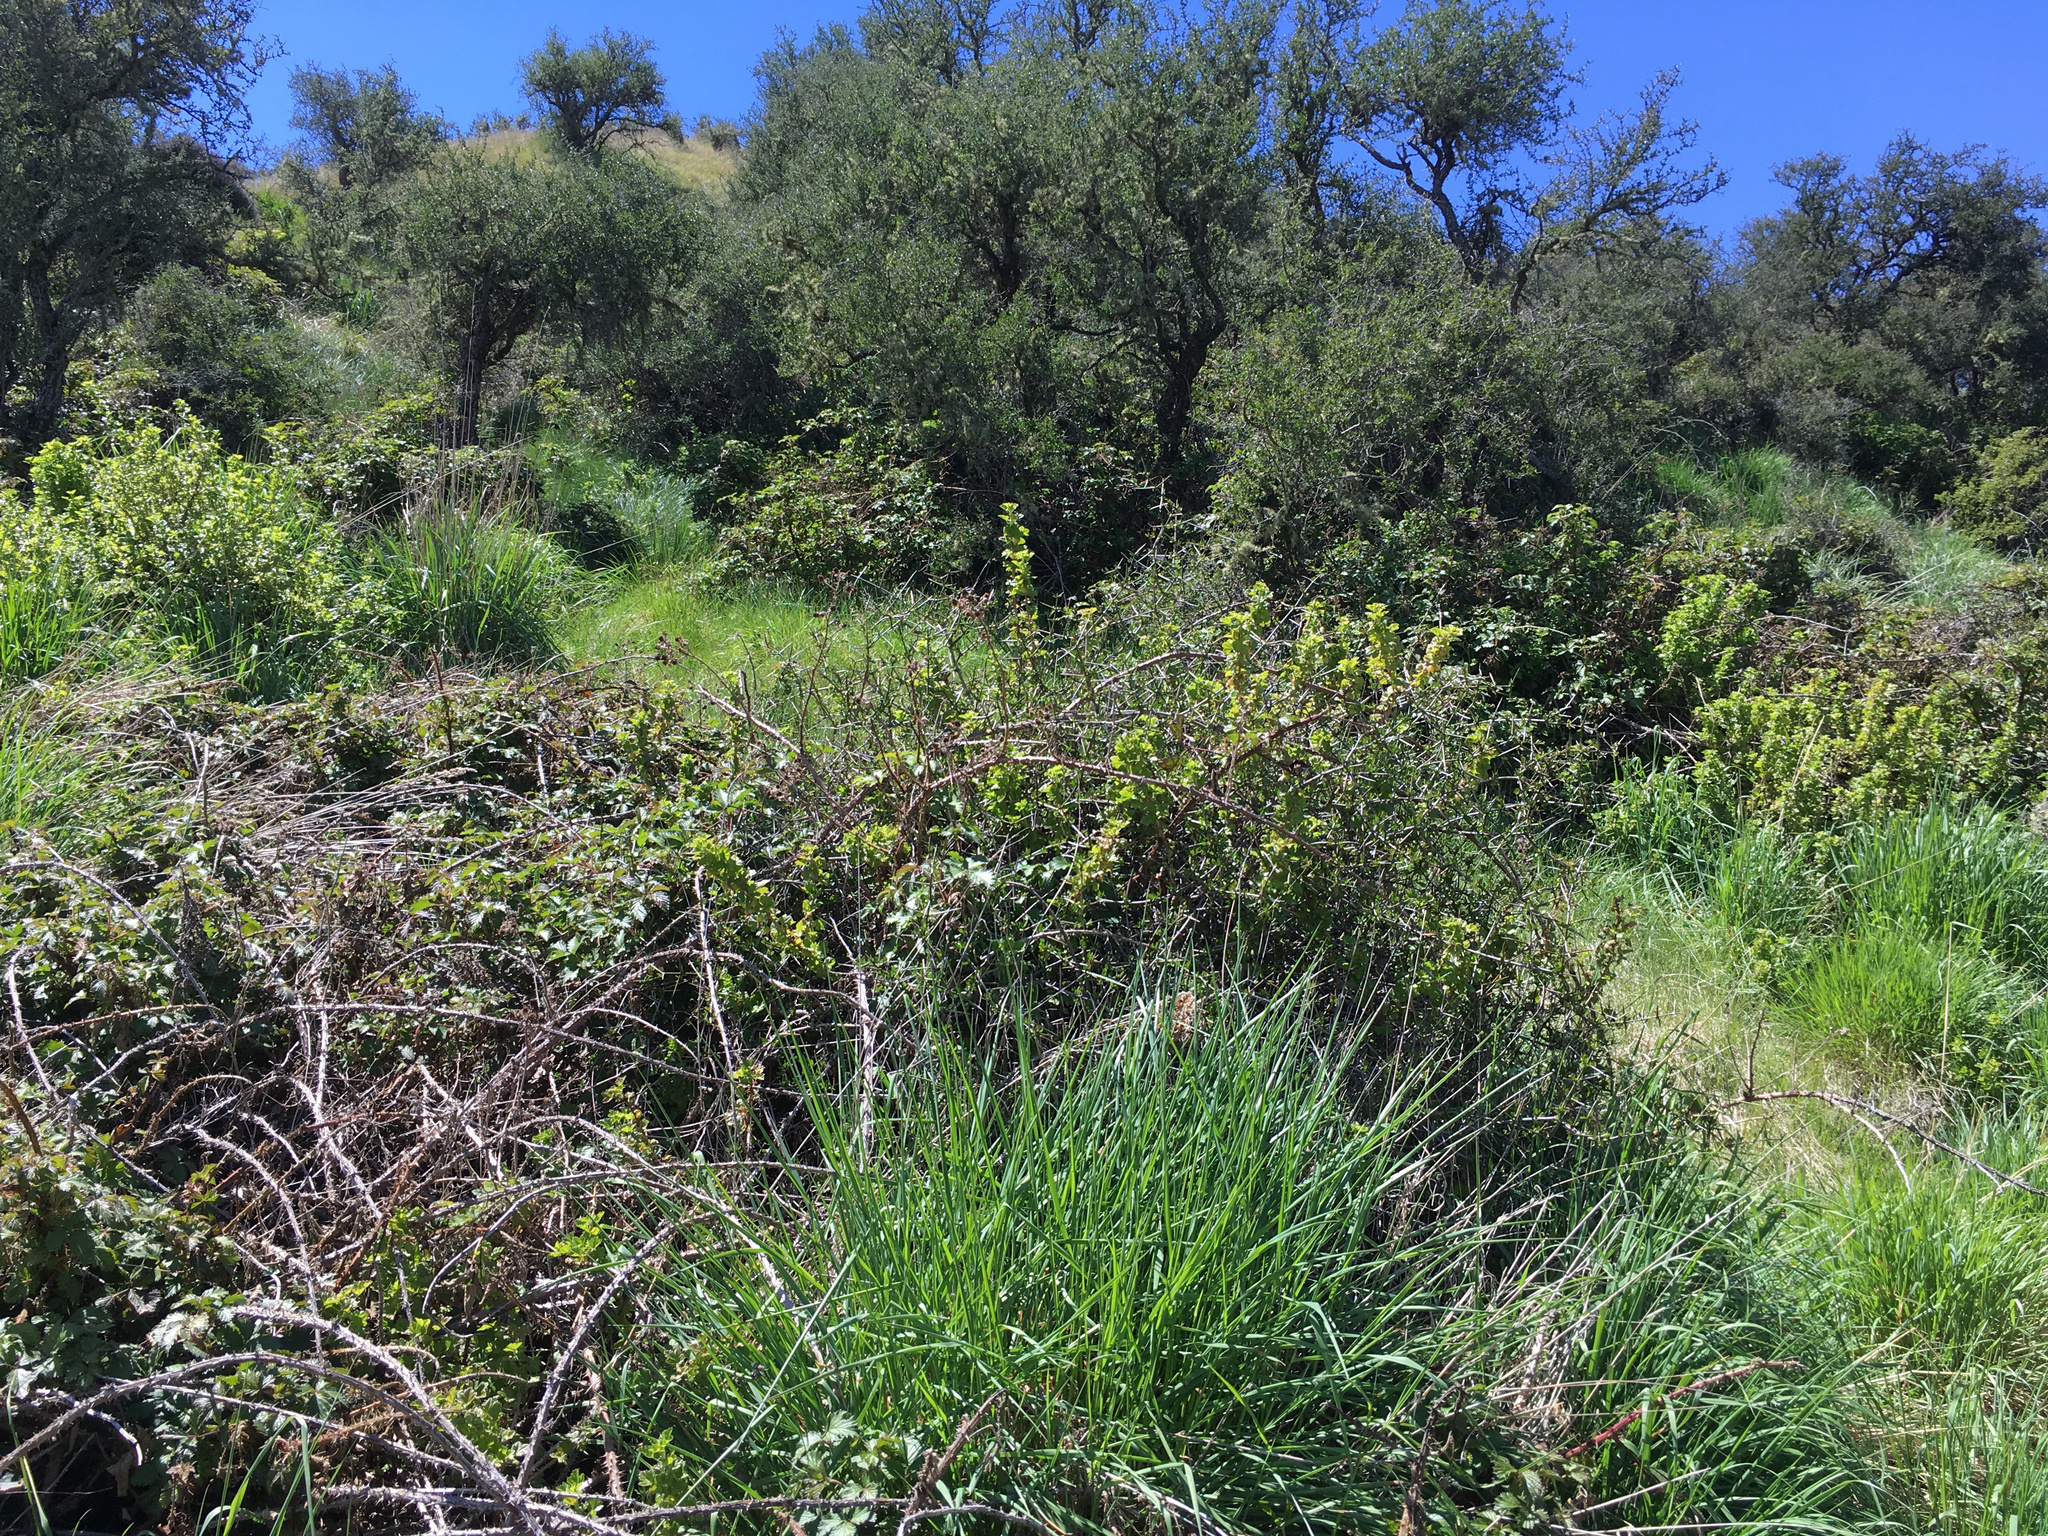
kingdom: Plantae
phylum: Tracheophyta
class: Magnoliopsida
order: Saxifragales
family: Grossulariaceae
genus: Ribes
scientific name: Ribes uva-crispa
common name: Gooseberry
